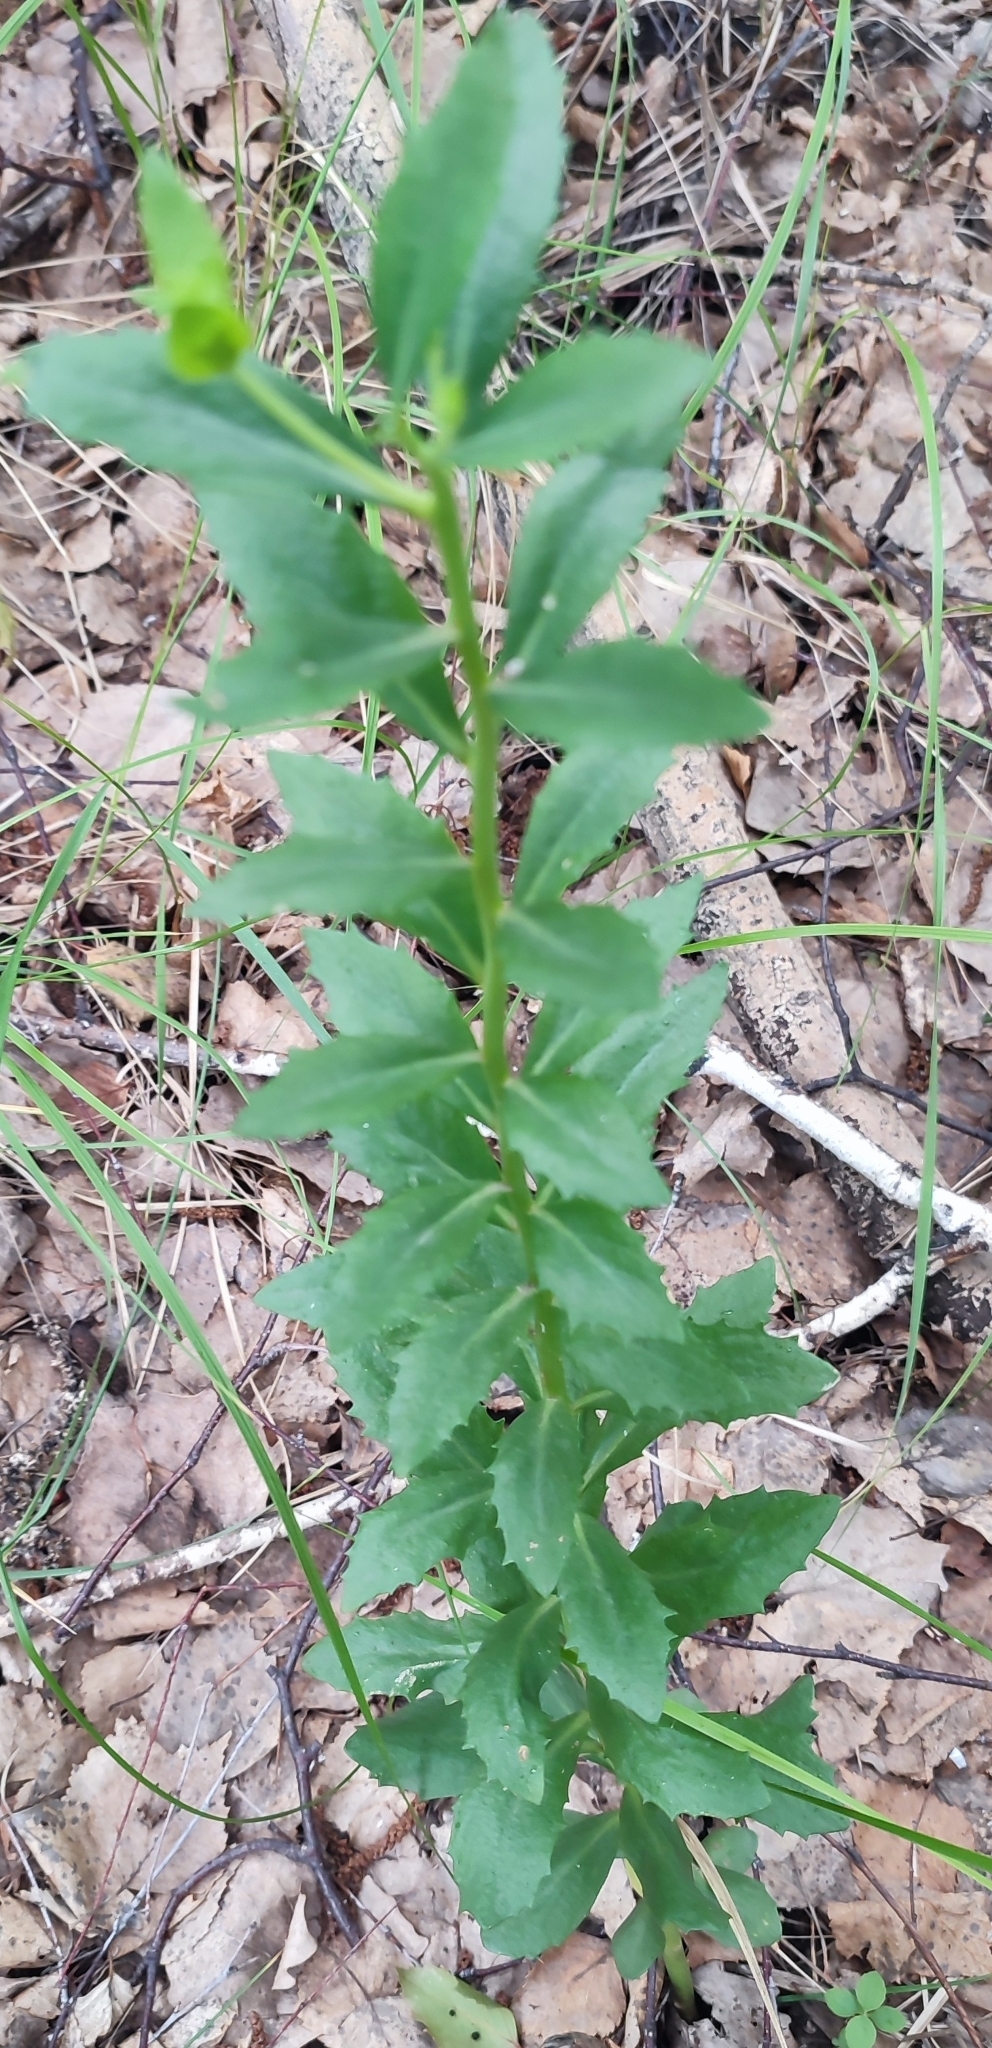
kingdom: Plantae
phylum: Tracheophyta
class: Magnoliopsida
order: Saxifragales
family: Crassulaceae
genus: Hylotelephium
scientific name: Hylotelephium telephium
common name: Live-forever
